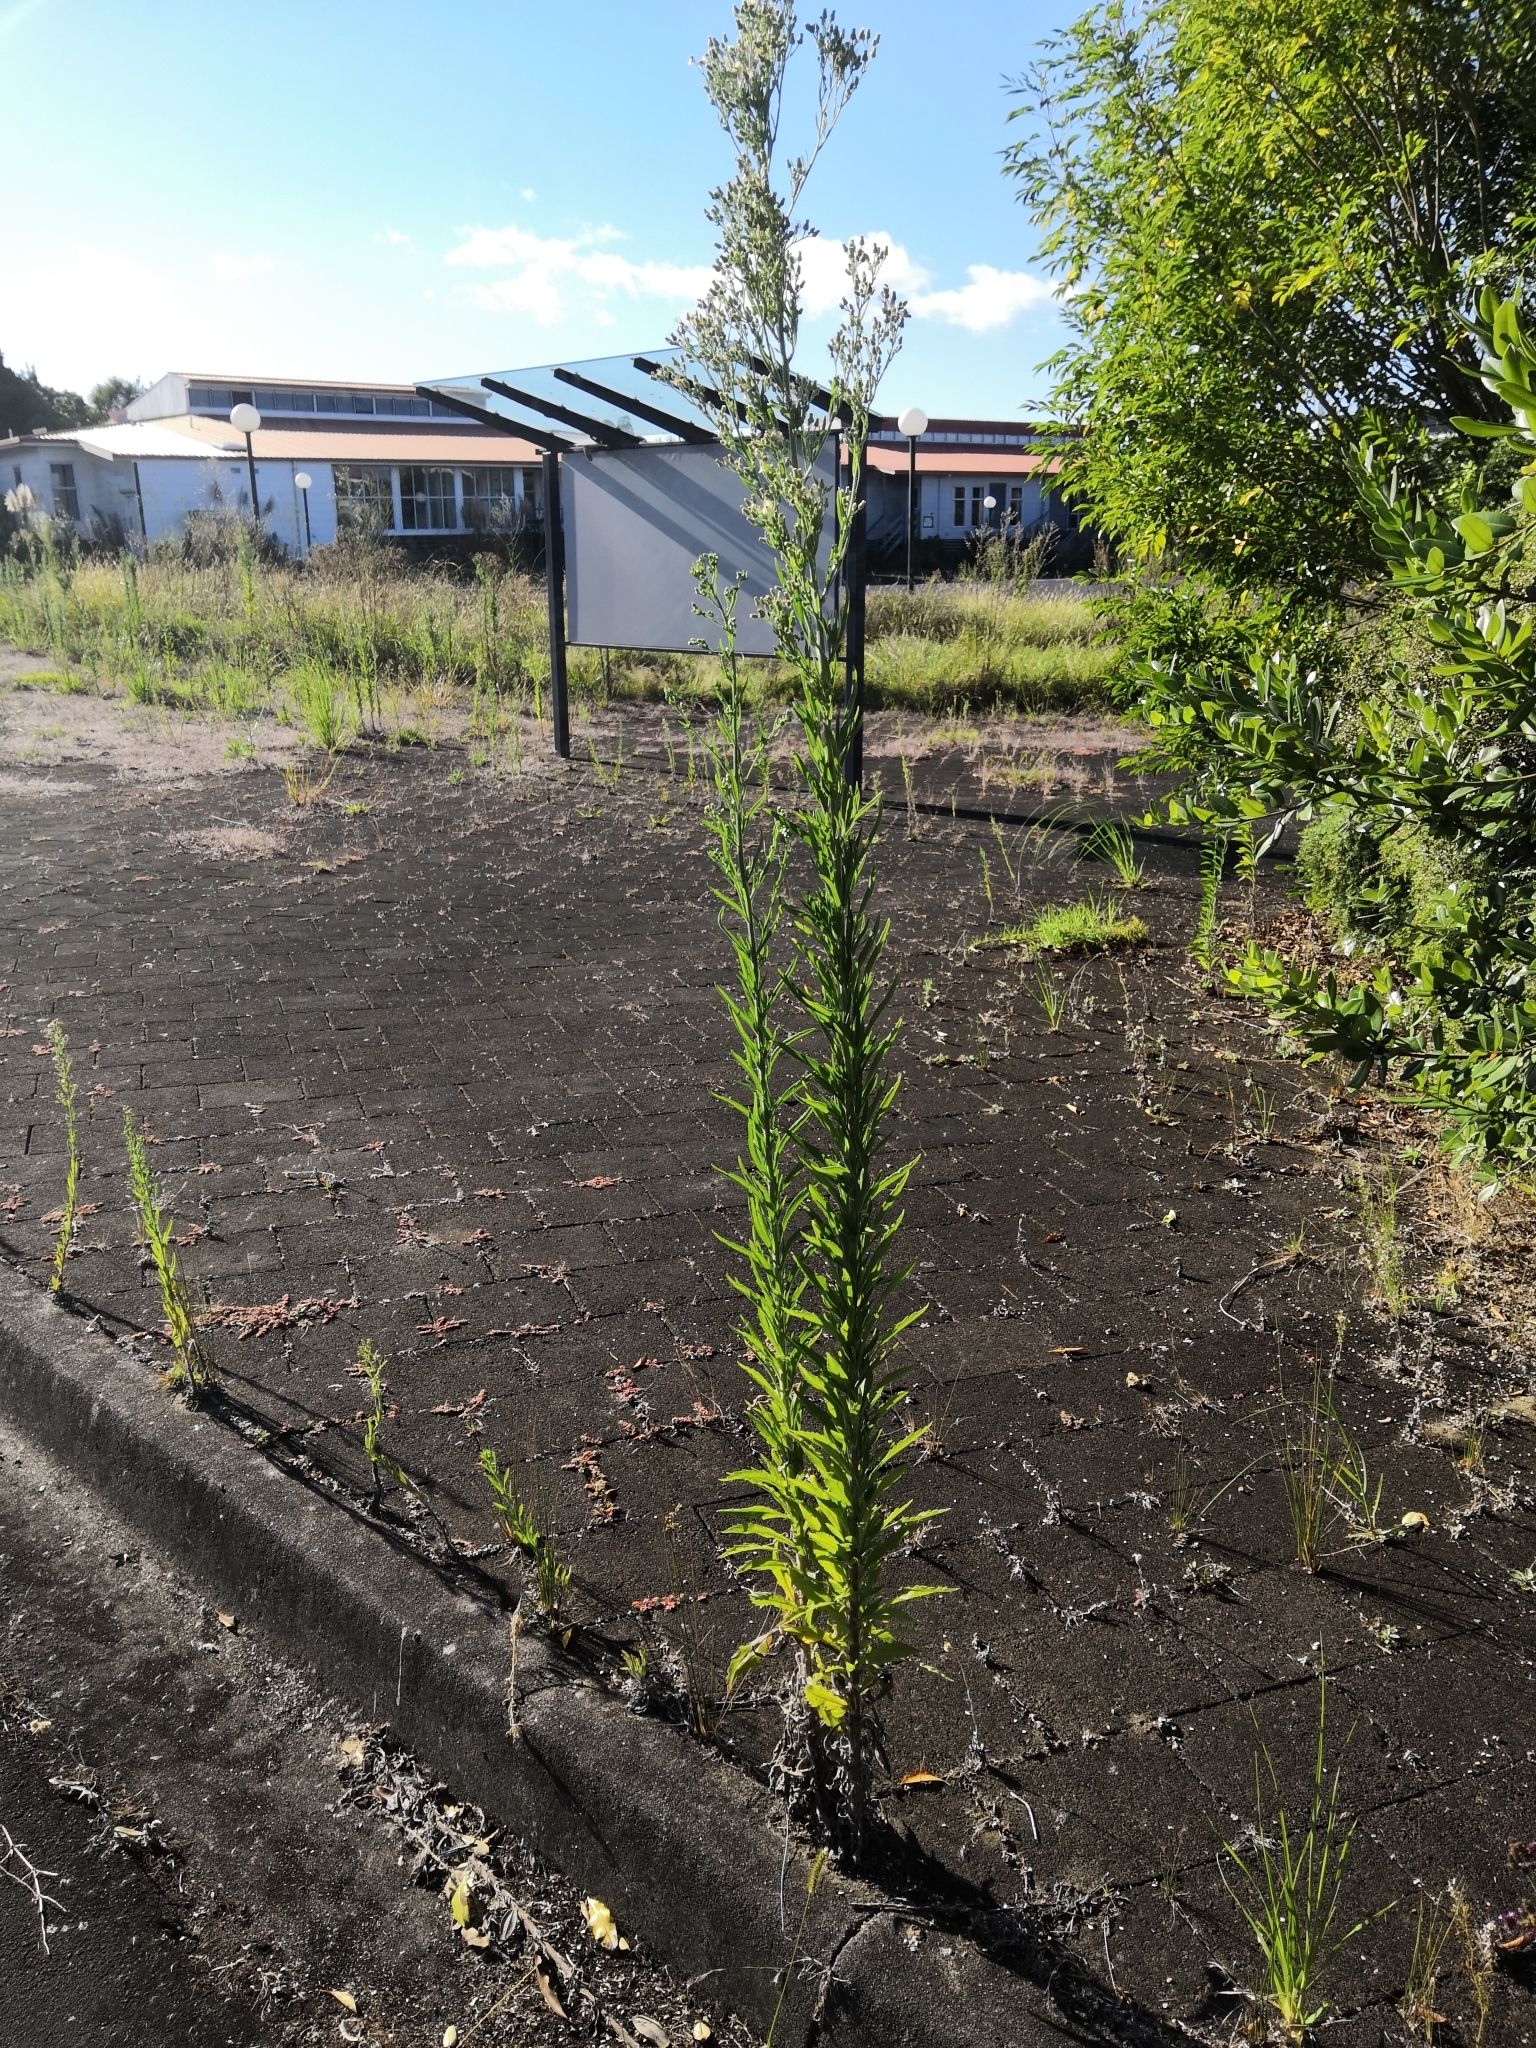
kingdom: Plantae
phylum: Tracheophyta
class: Magnoliopsida
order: Asterales
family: Asteraceae
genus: Erigeron
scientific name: Erigeron sumatrensis
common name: Daisy
